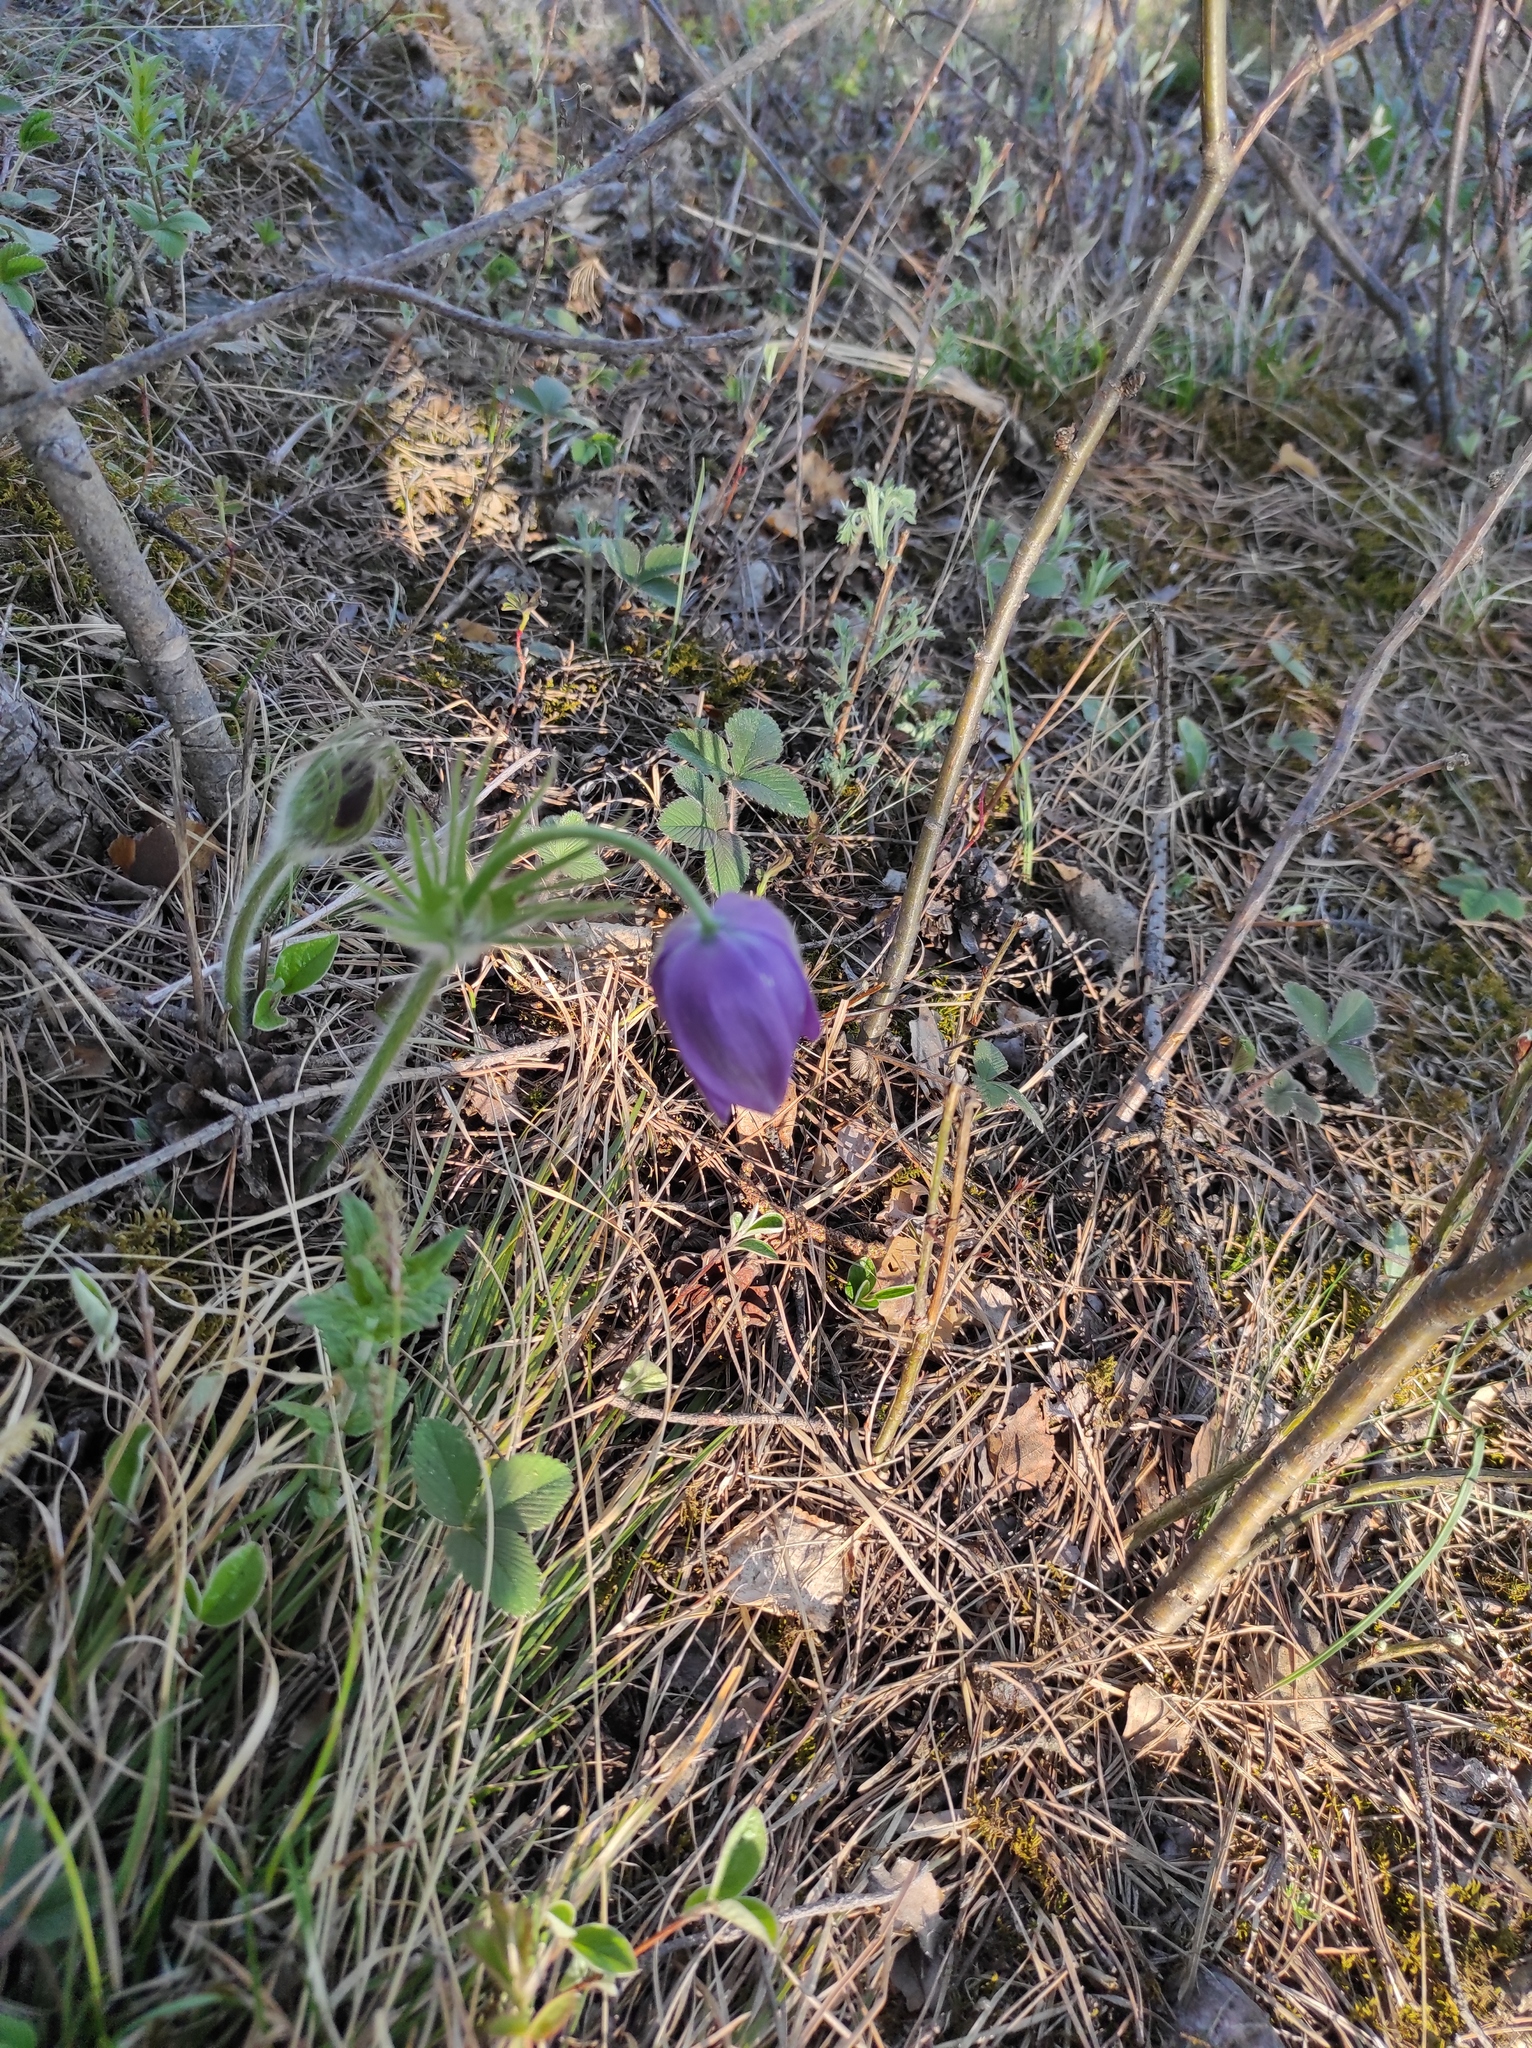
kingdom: Plantae
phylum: Tracheophyta
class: Magnoliopsida
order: Ranunculales
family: Ranunculaceae
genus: Pulsatilla
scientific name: Pulsatilla patens
